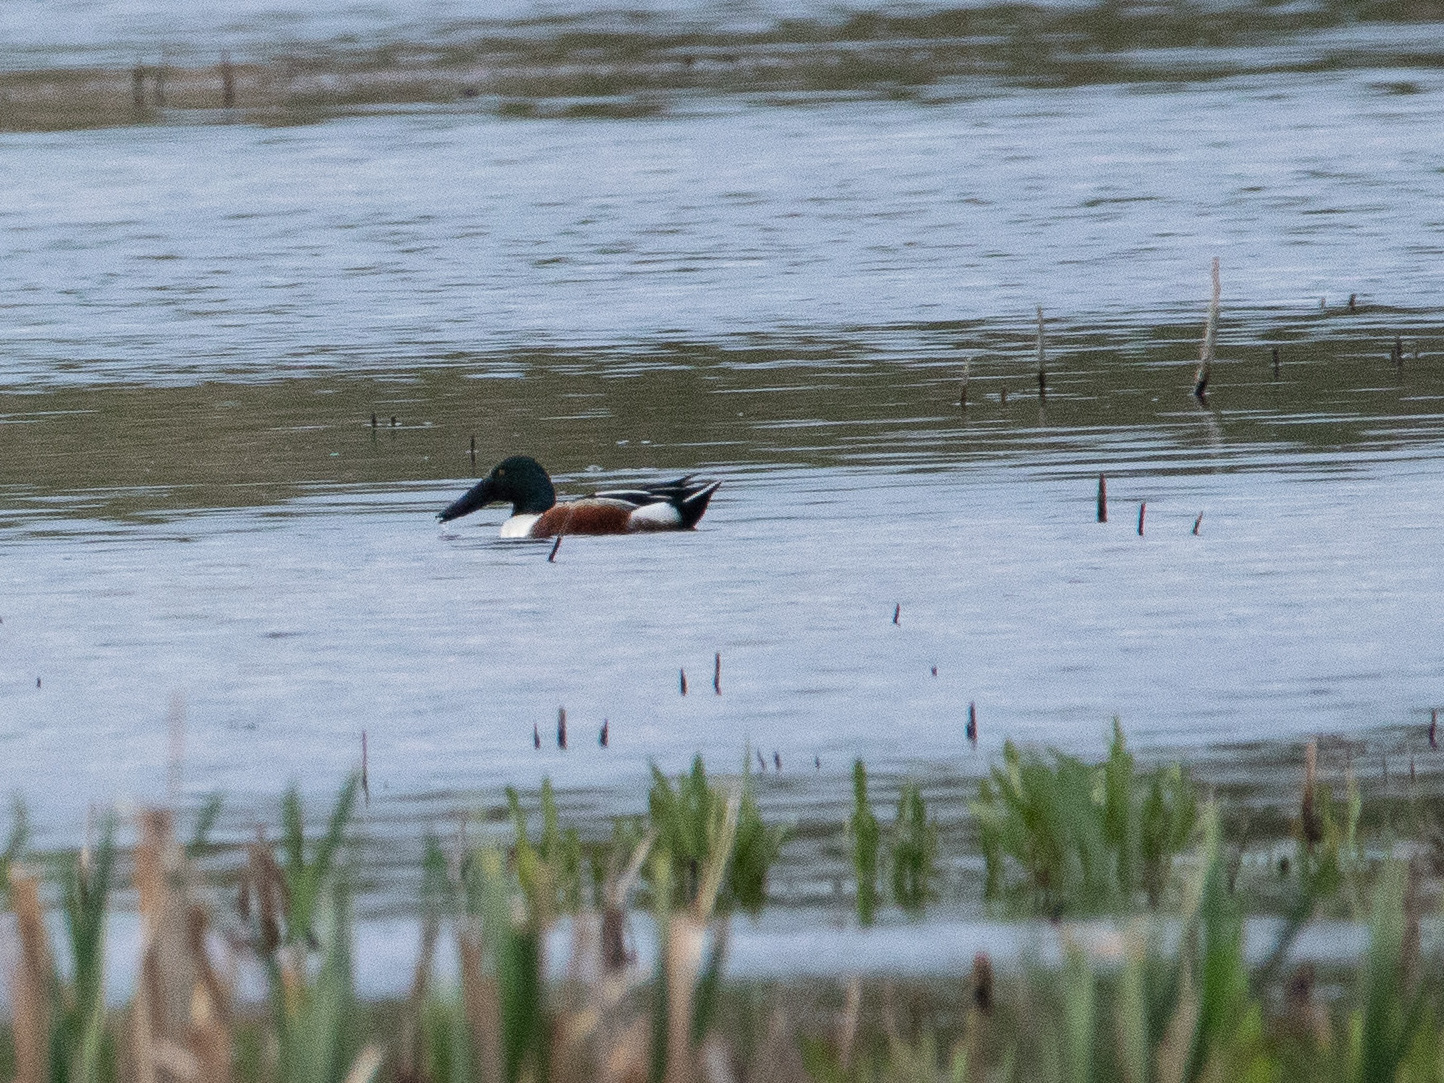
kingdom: Animalia
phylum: Chordata
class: Aves
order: Anseriformes
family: Anatidae
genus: Spatula
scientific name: Spatula clypeata
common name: Northern shoveler
